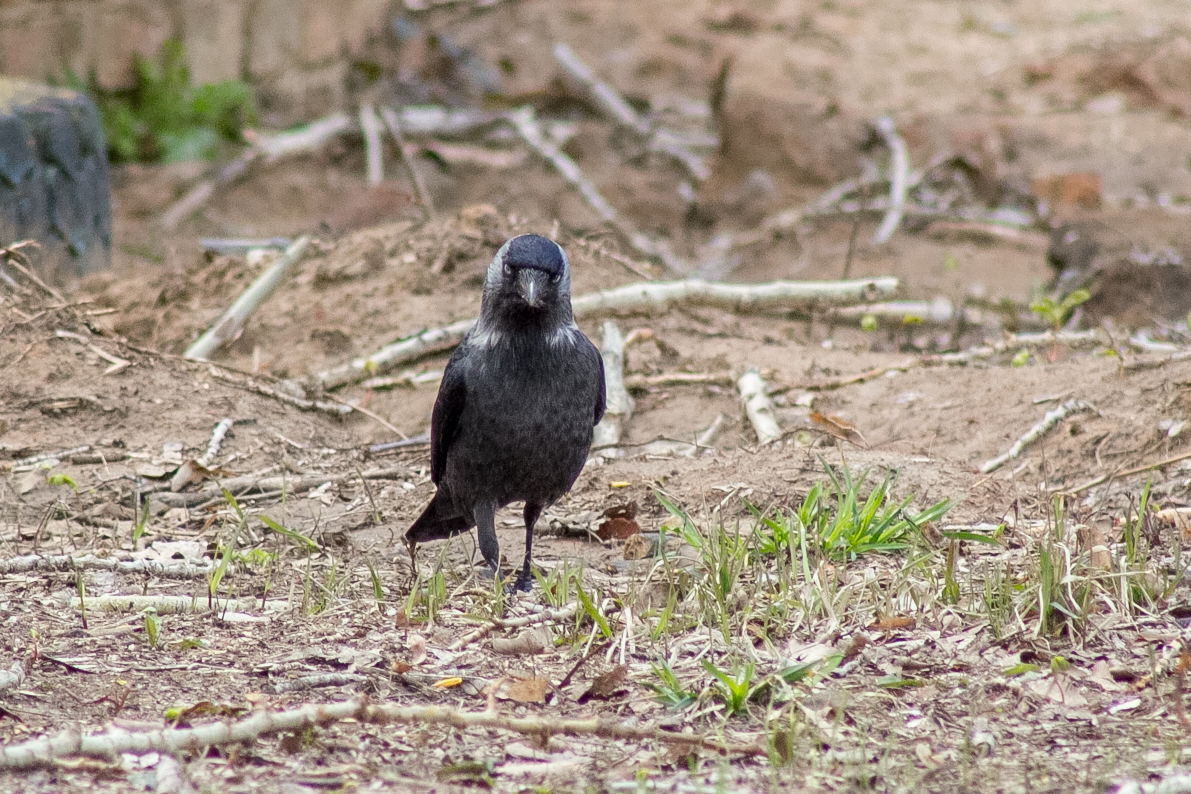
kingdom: Animalia
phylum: Chordata
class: Aves
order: Passeriformes
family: Corvidae
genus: Coloeus
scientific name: Coloeus monedula
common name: Western jackdaw
